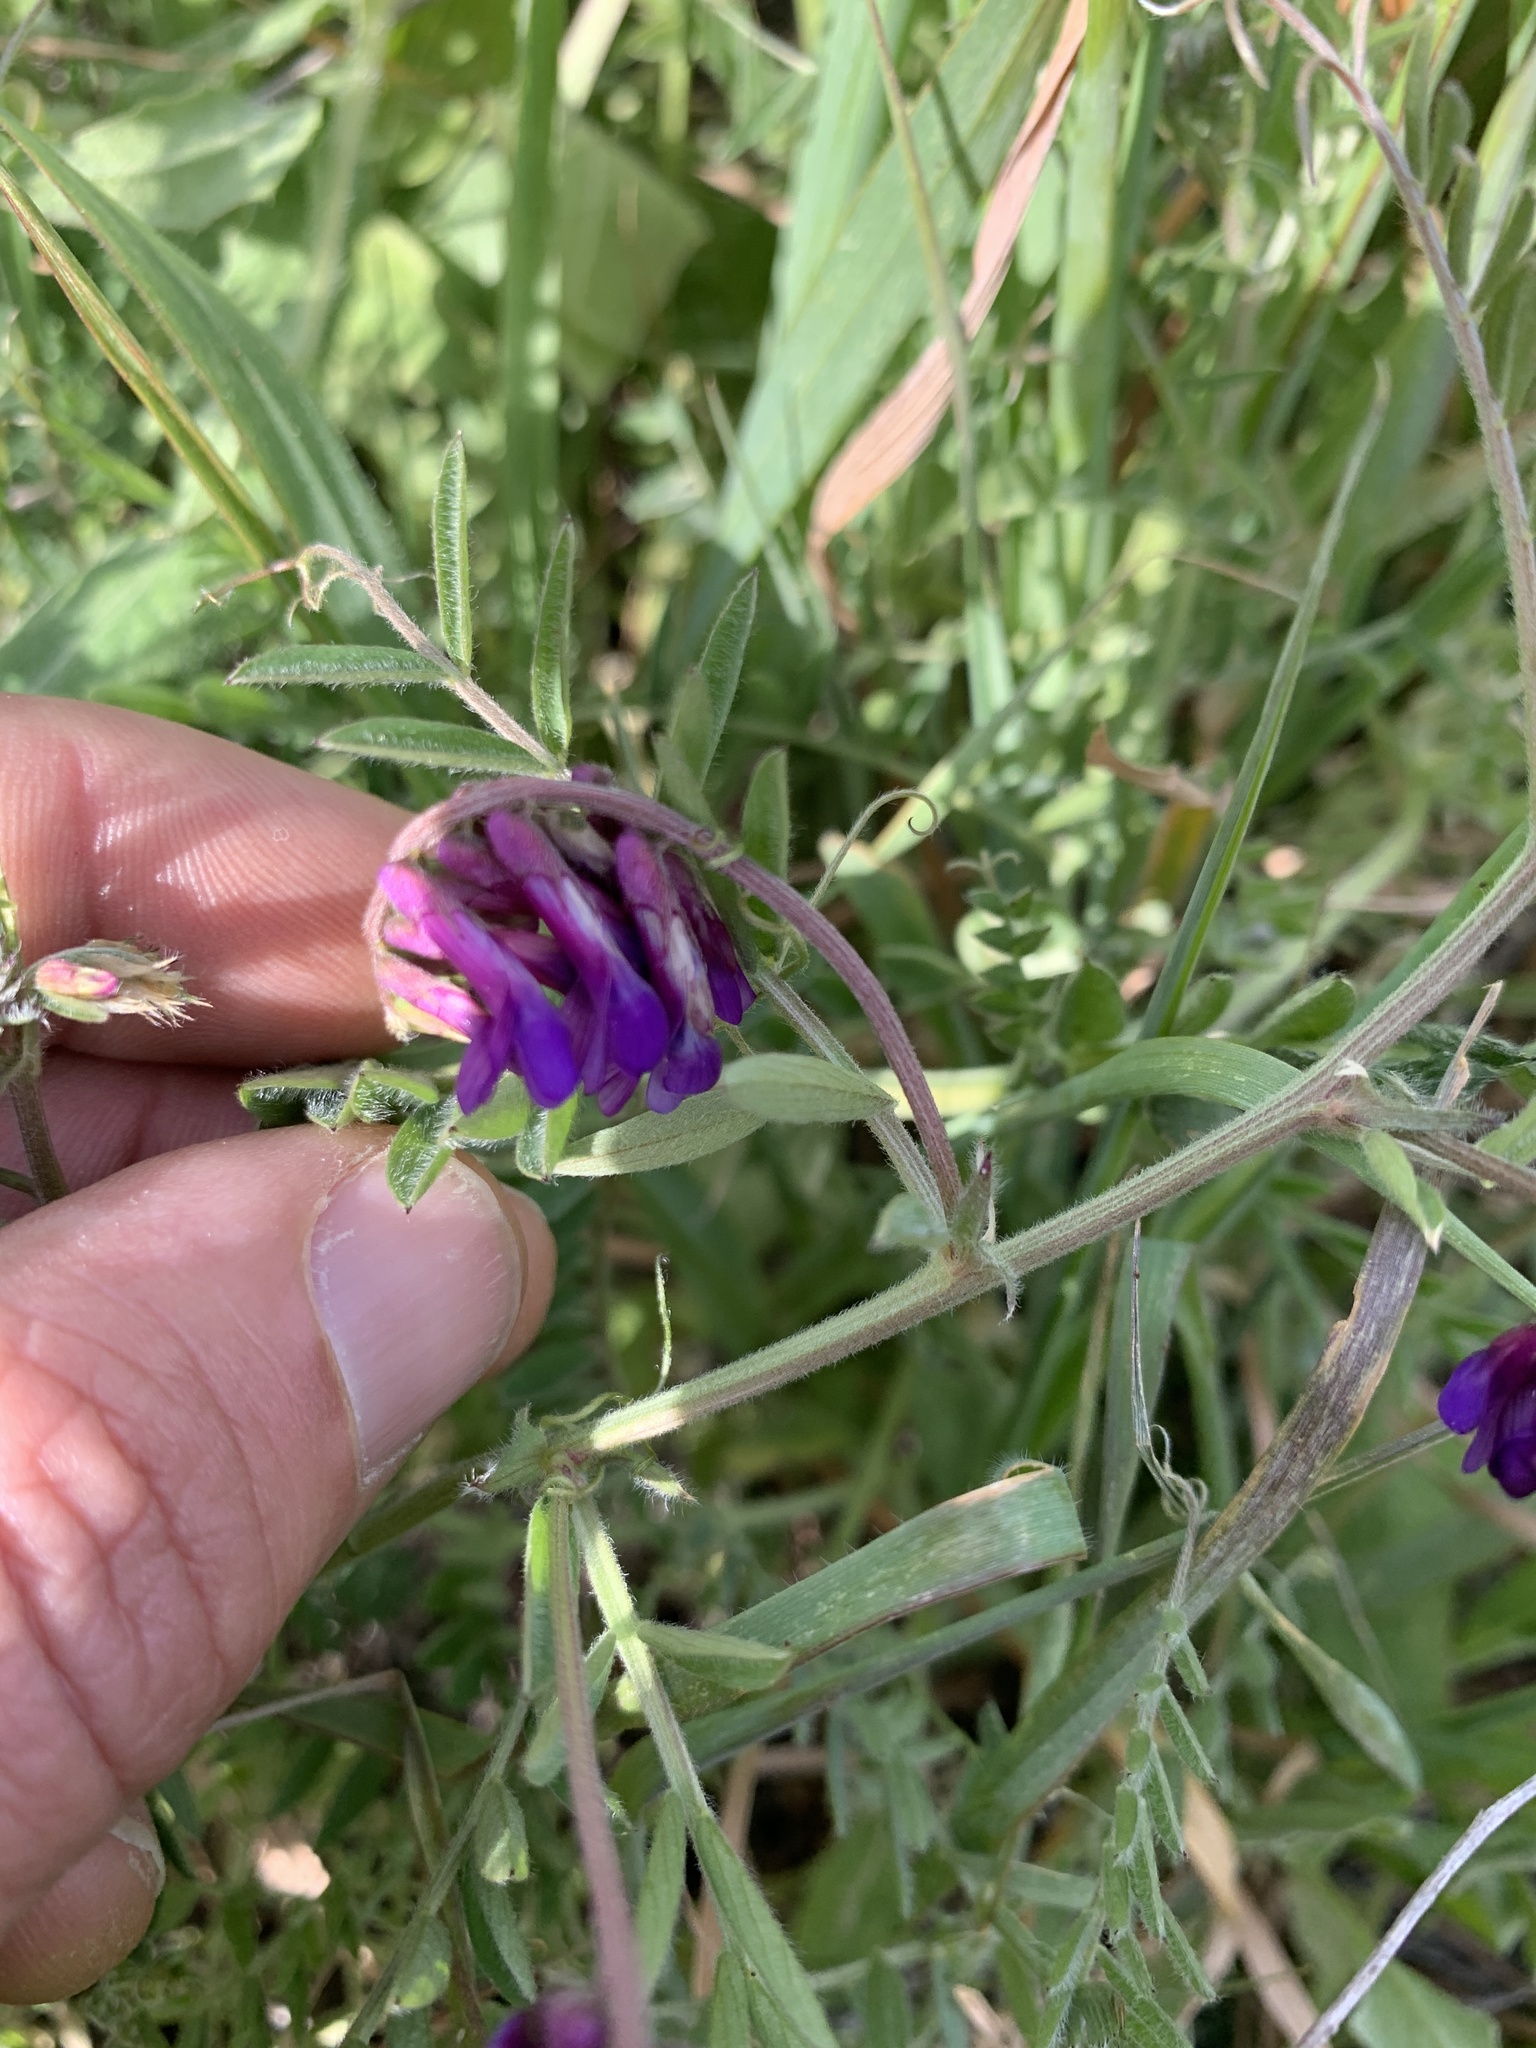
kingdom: Plantae
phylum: Tracheophyta
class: Magnoliopsida
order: Fabales
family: Fabaceae
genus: Vicia
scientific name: Vicia villosa
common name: Fodder vetch
